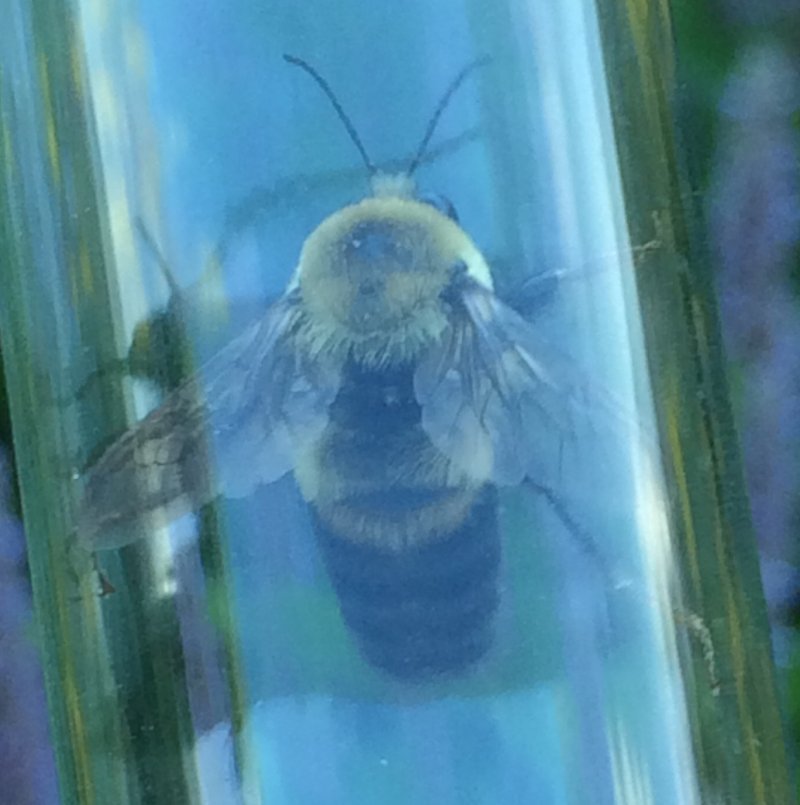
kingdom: Animalia
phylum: Arthropoda
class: Insecta
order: Hymenoptera
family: Apidae
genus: Bombus
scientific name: Bombus griseocollis
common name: Brown-belted bumble bee
